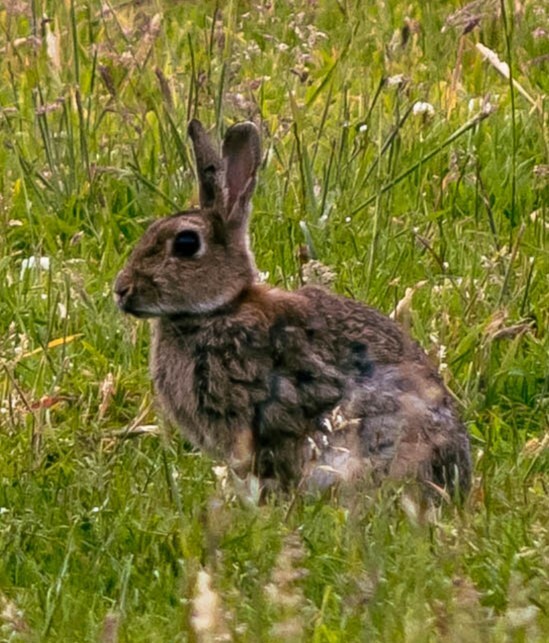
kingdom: Animalia
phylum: Chordata
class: Mammalia
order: Lagomorpha
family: Leporidae
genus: Oryctolagus
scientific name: Oryctolagus cuniculus
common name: European rabbit
